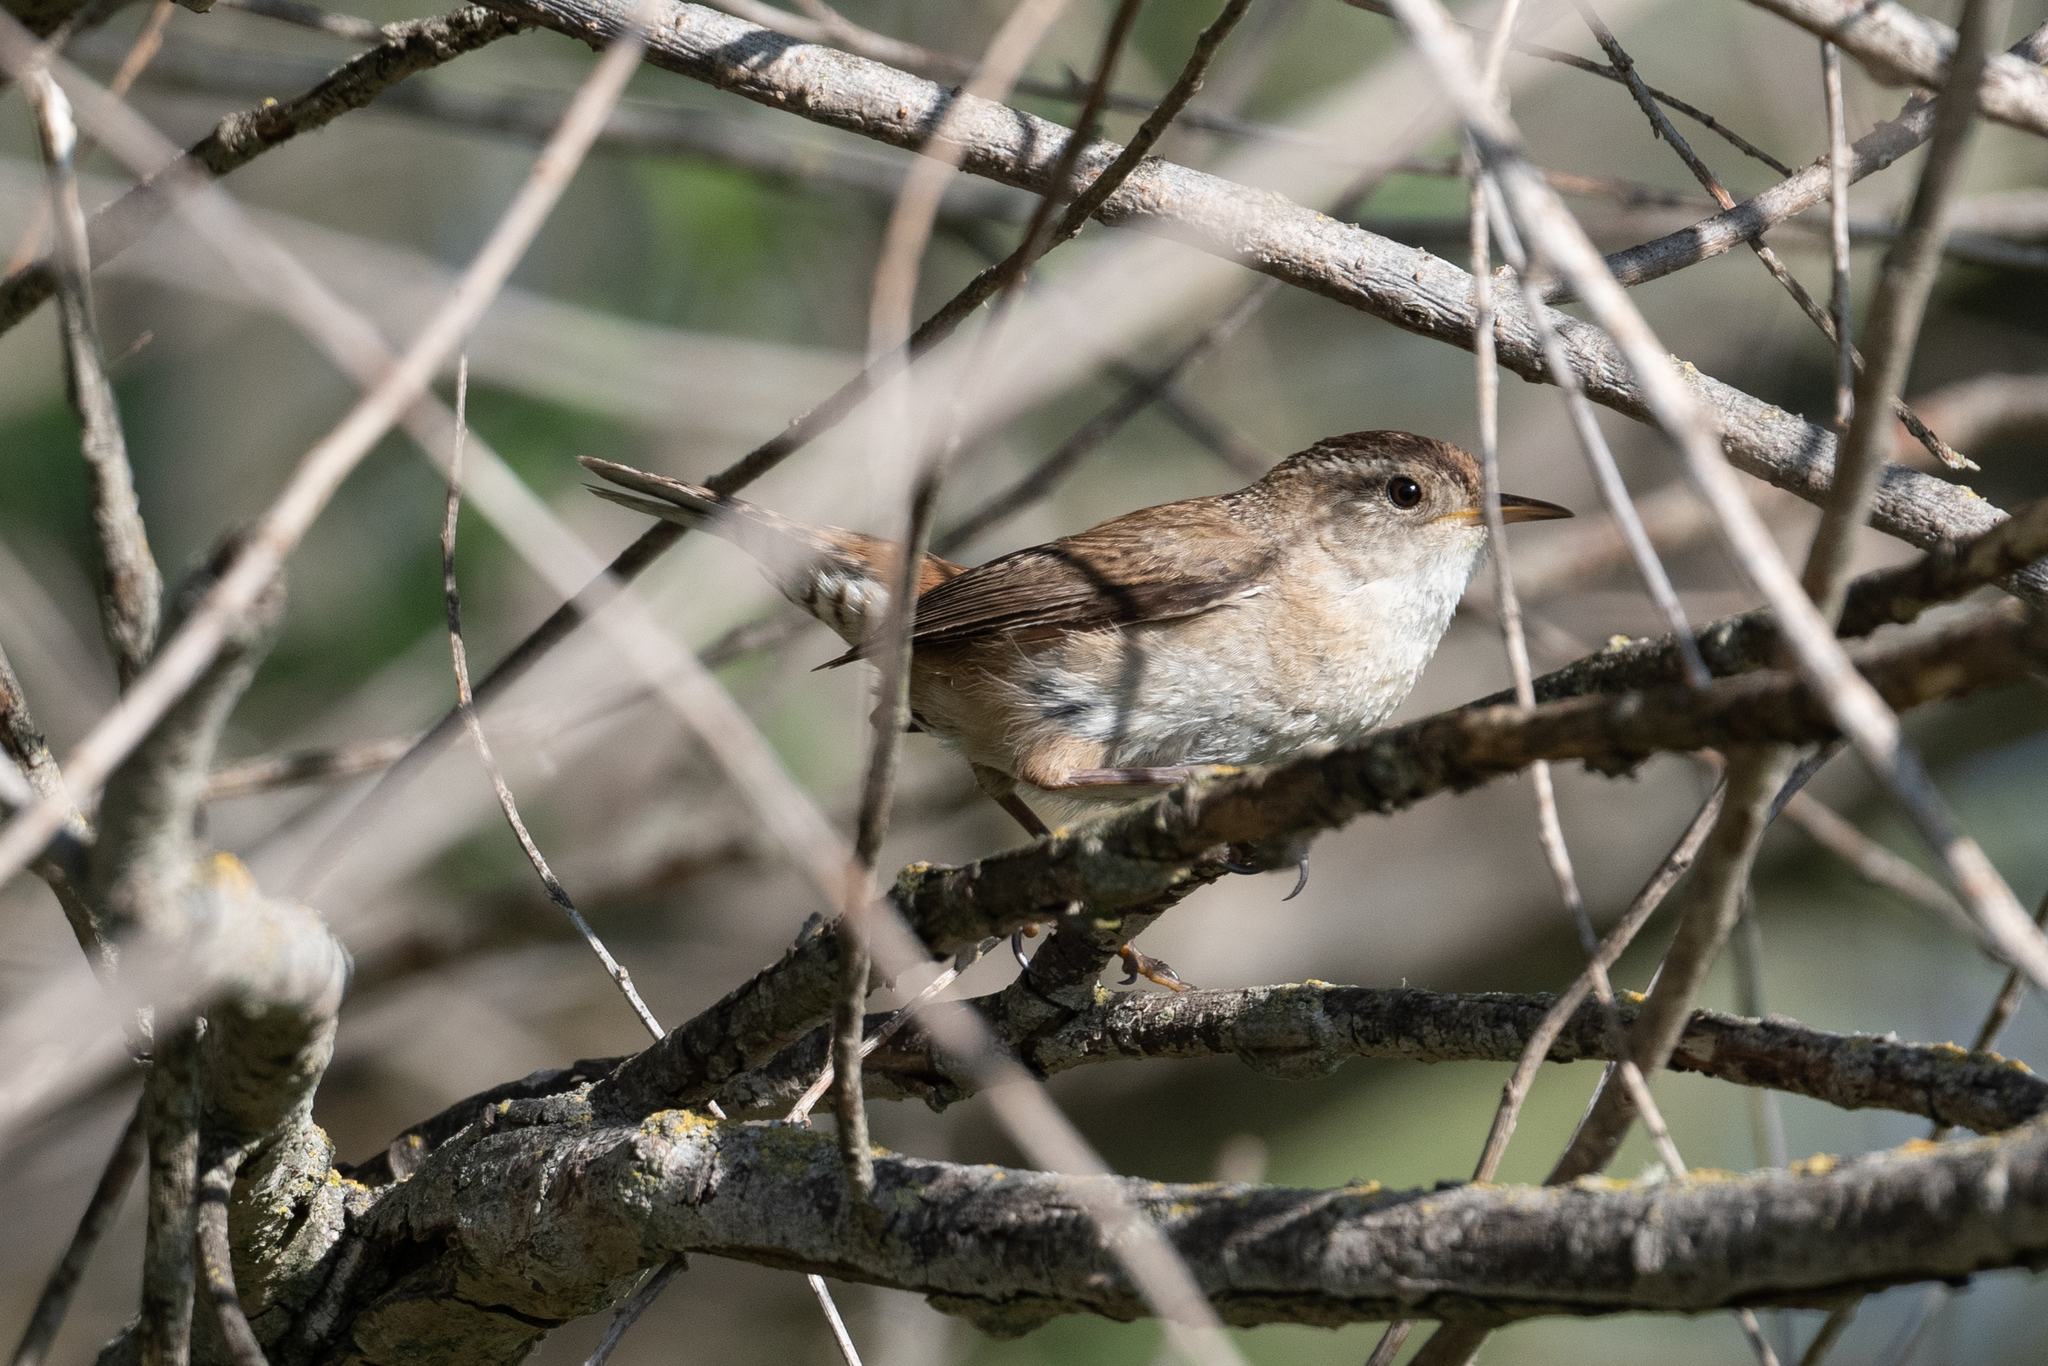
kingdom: Animalia
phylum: Chordata
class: Aves
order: Passeriformes
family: Troglodytidae
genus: Cistothorus
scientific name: Cistothorus palustris
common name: Marsh wren
